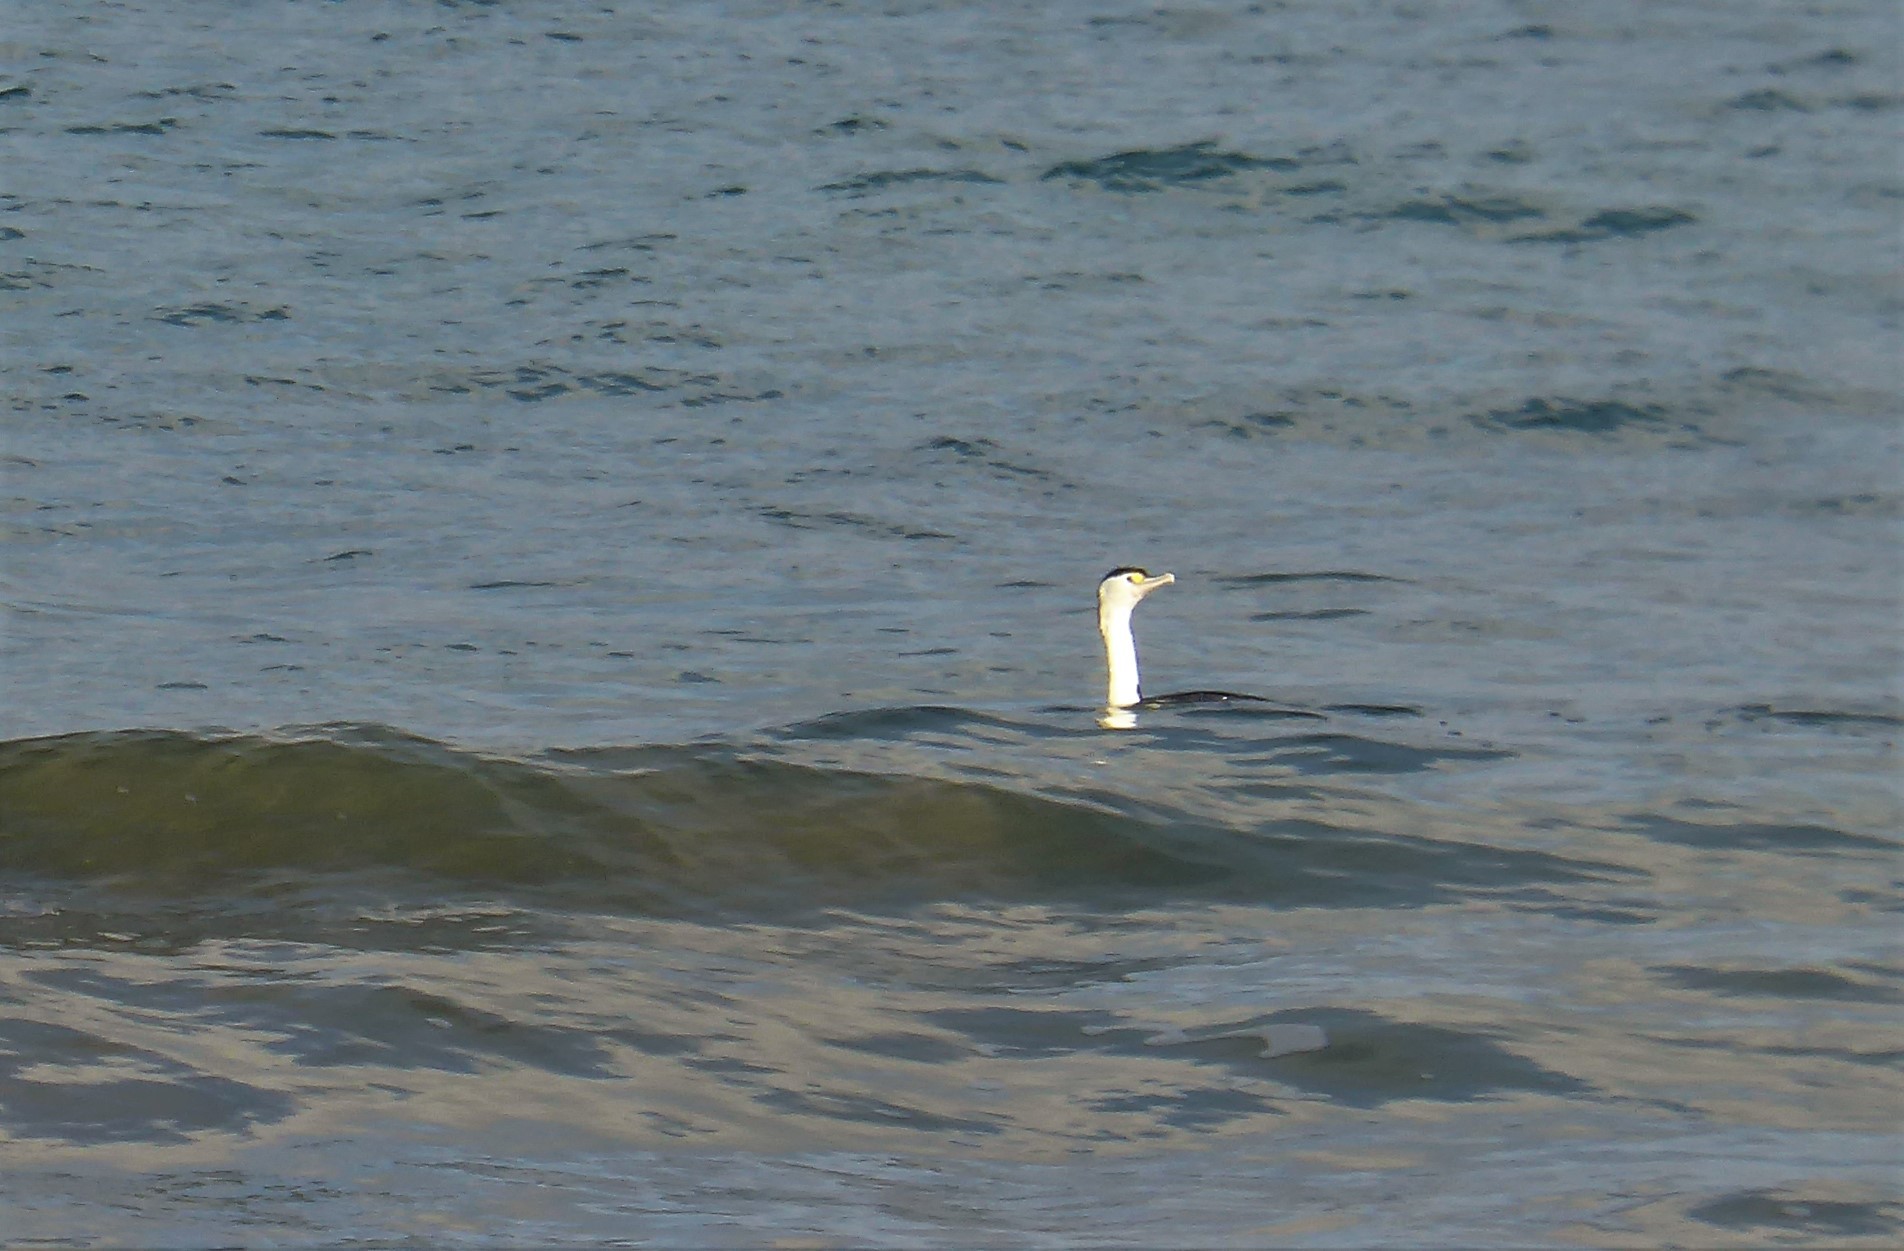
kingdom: Animalia
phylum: Chordata
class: Aves
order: Suliformes
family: Phalacrocoracidae
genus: Phalacrocorax
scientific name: Phalacrocorax varius
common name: Pied cormorant
